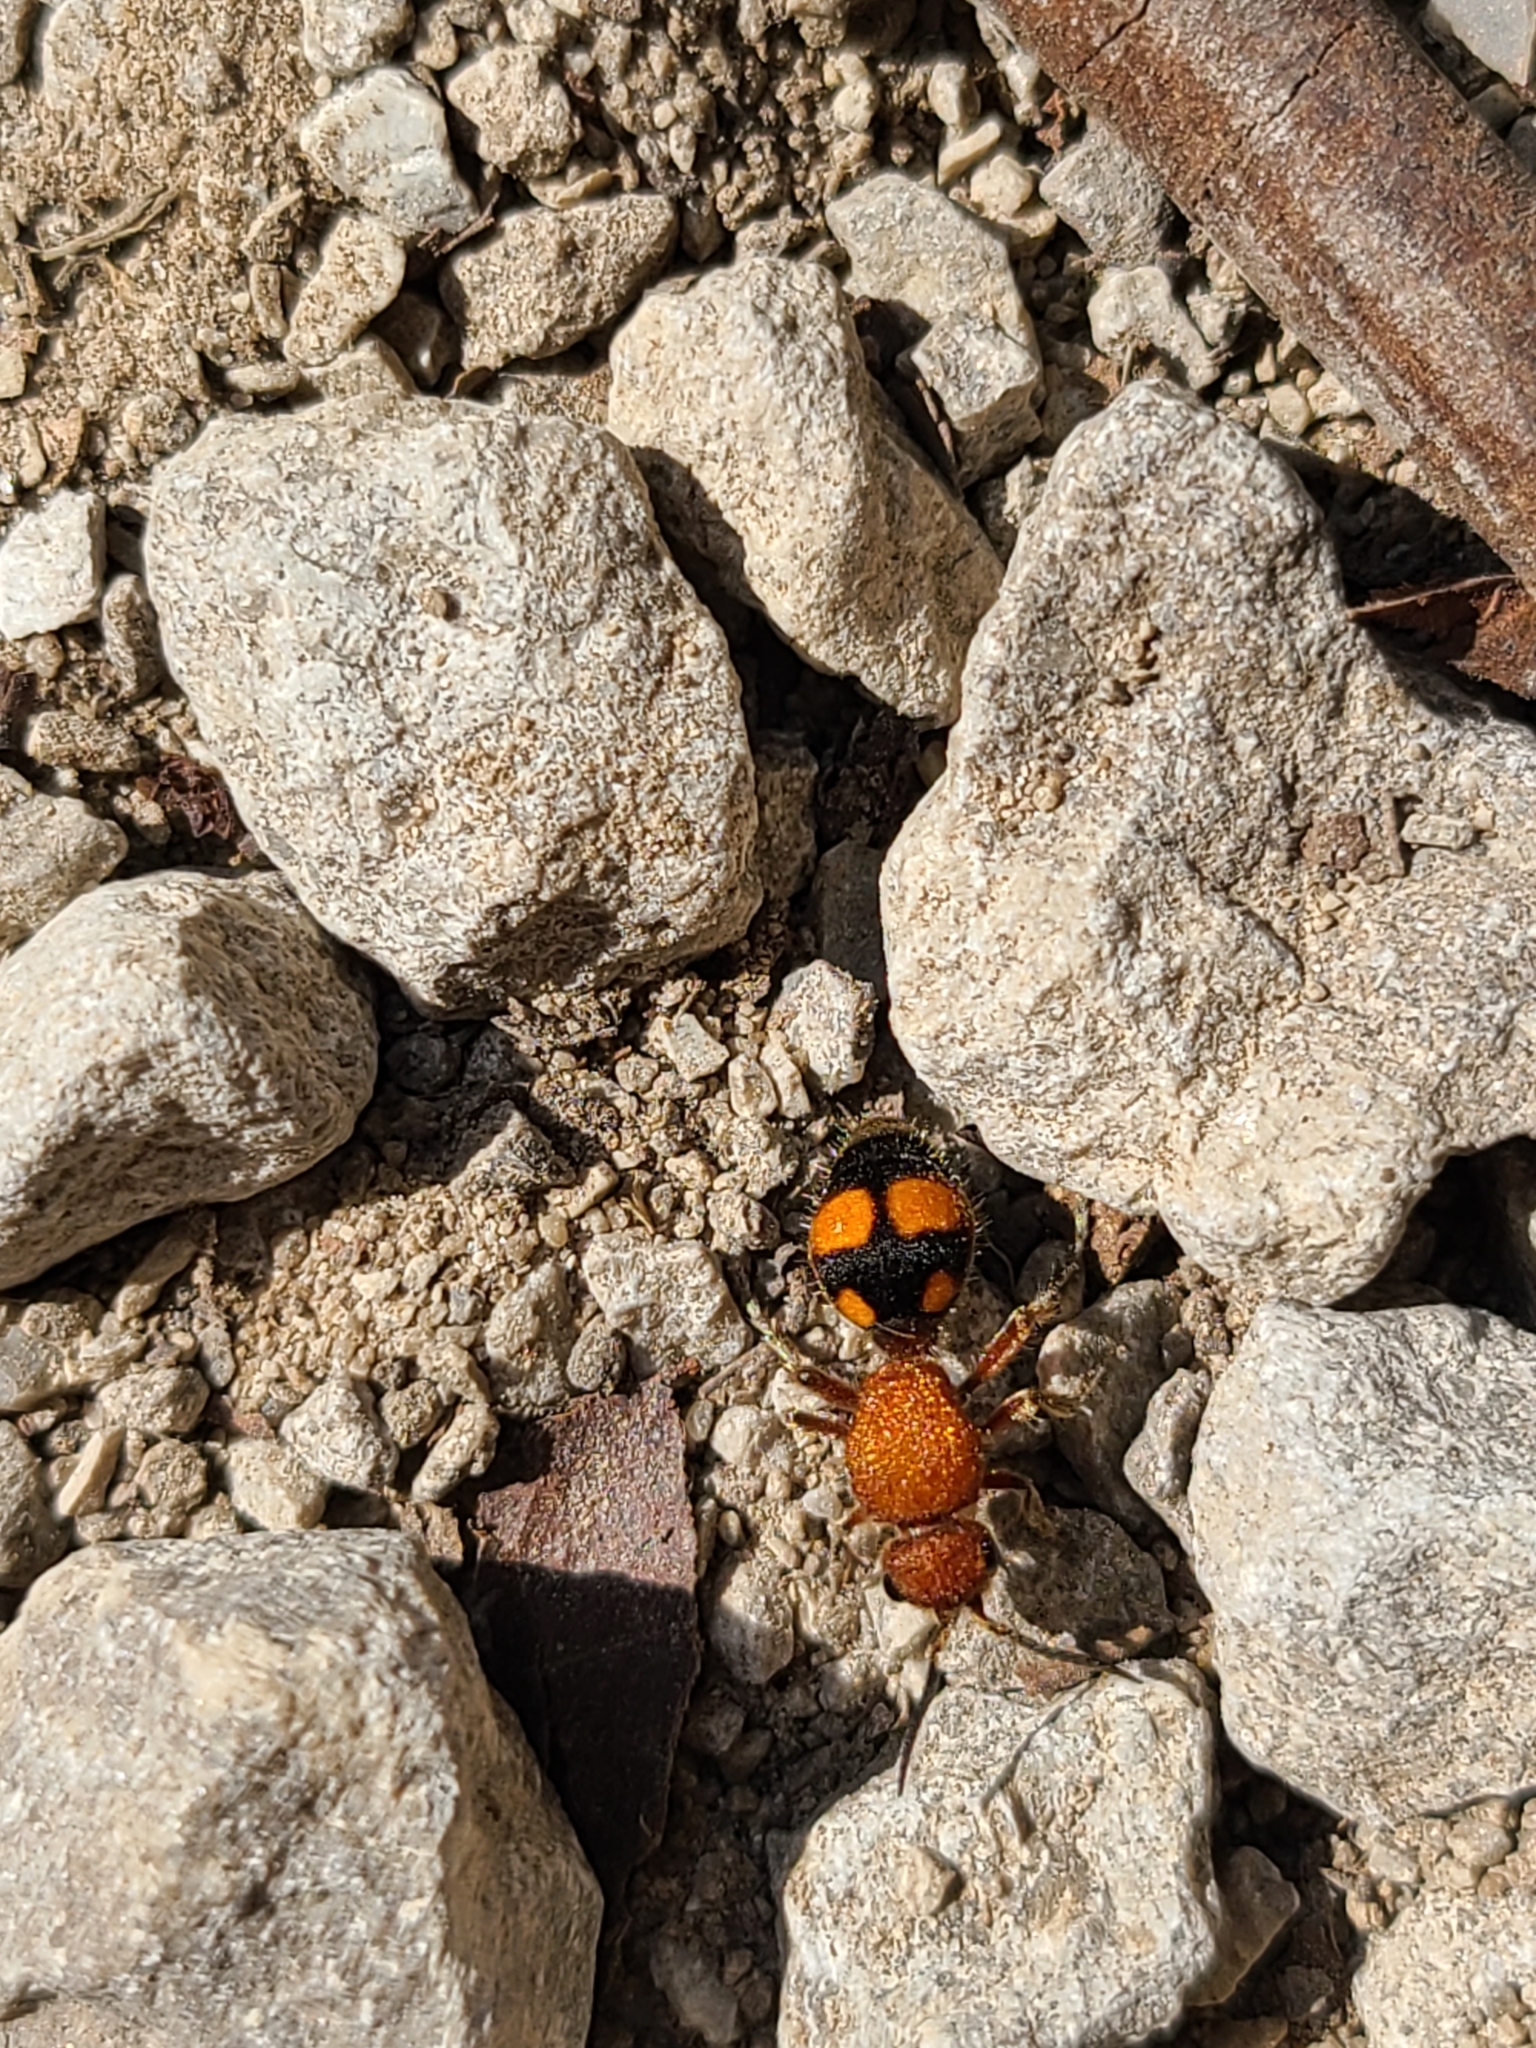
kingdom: Animalia
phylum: Arthropoda
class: Insecta
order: Hymenoptera
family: Mutillidae
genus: Dasymutilla
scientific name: Dasymutilla
